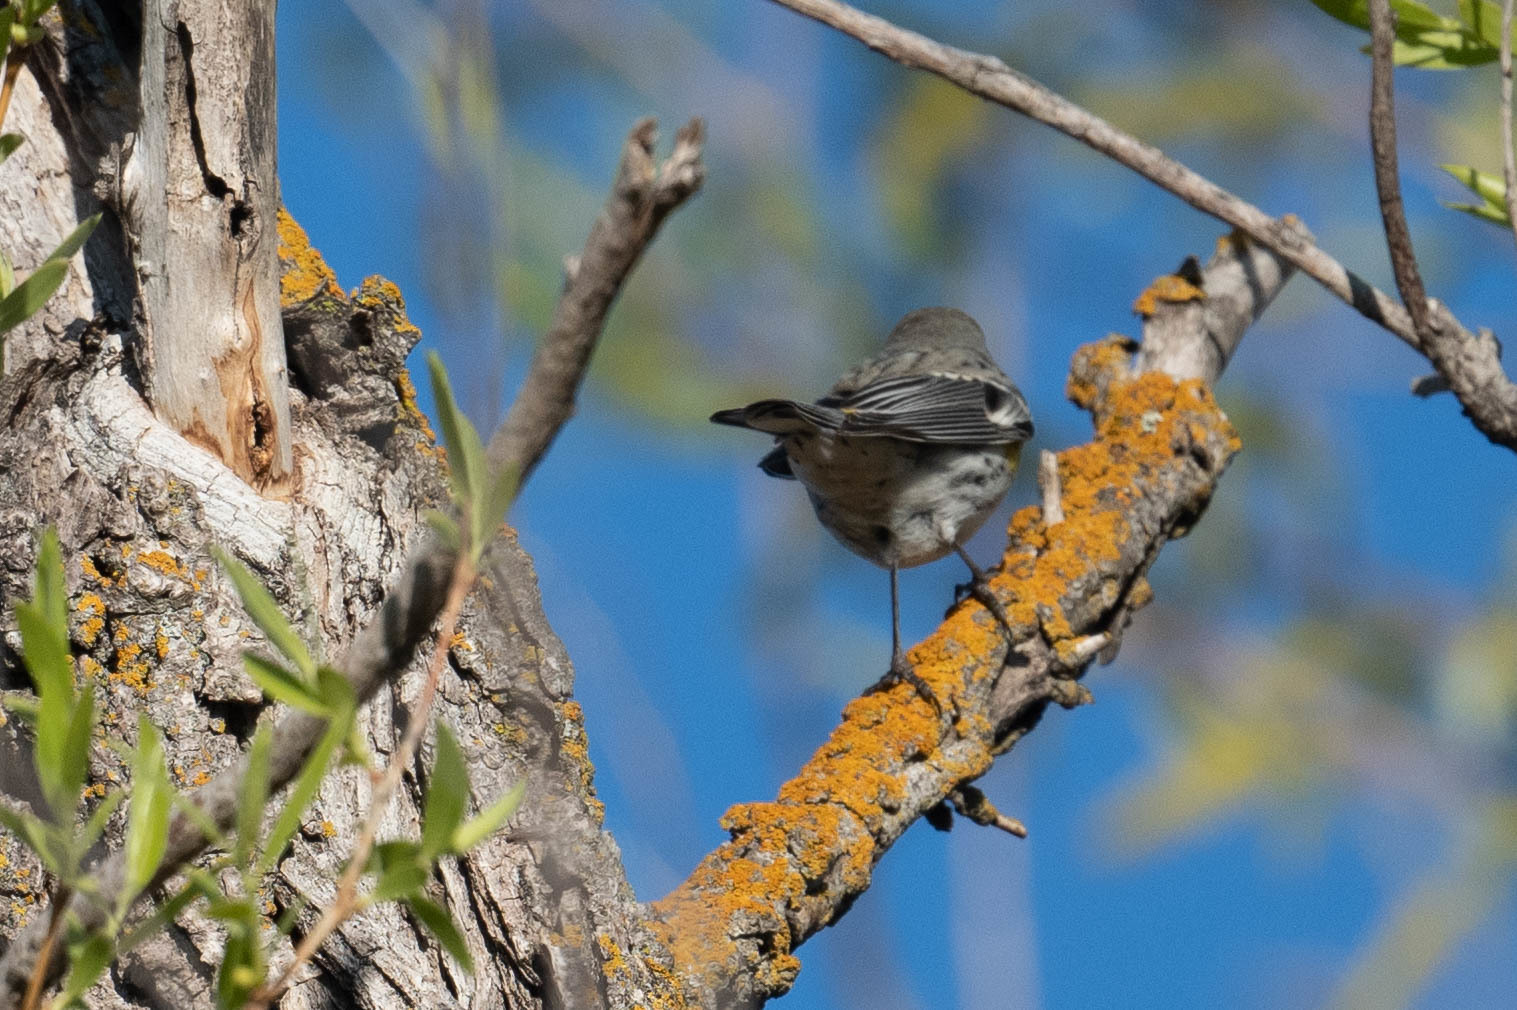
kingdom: Animalia
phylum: Chordata
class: Aves
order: Passeriformes
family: Parulidae
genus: Setophaga
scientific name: Setophaga coronata
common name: Myrtle warbler
